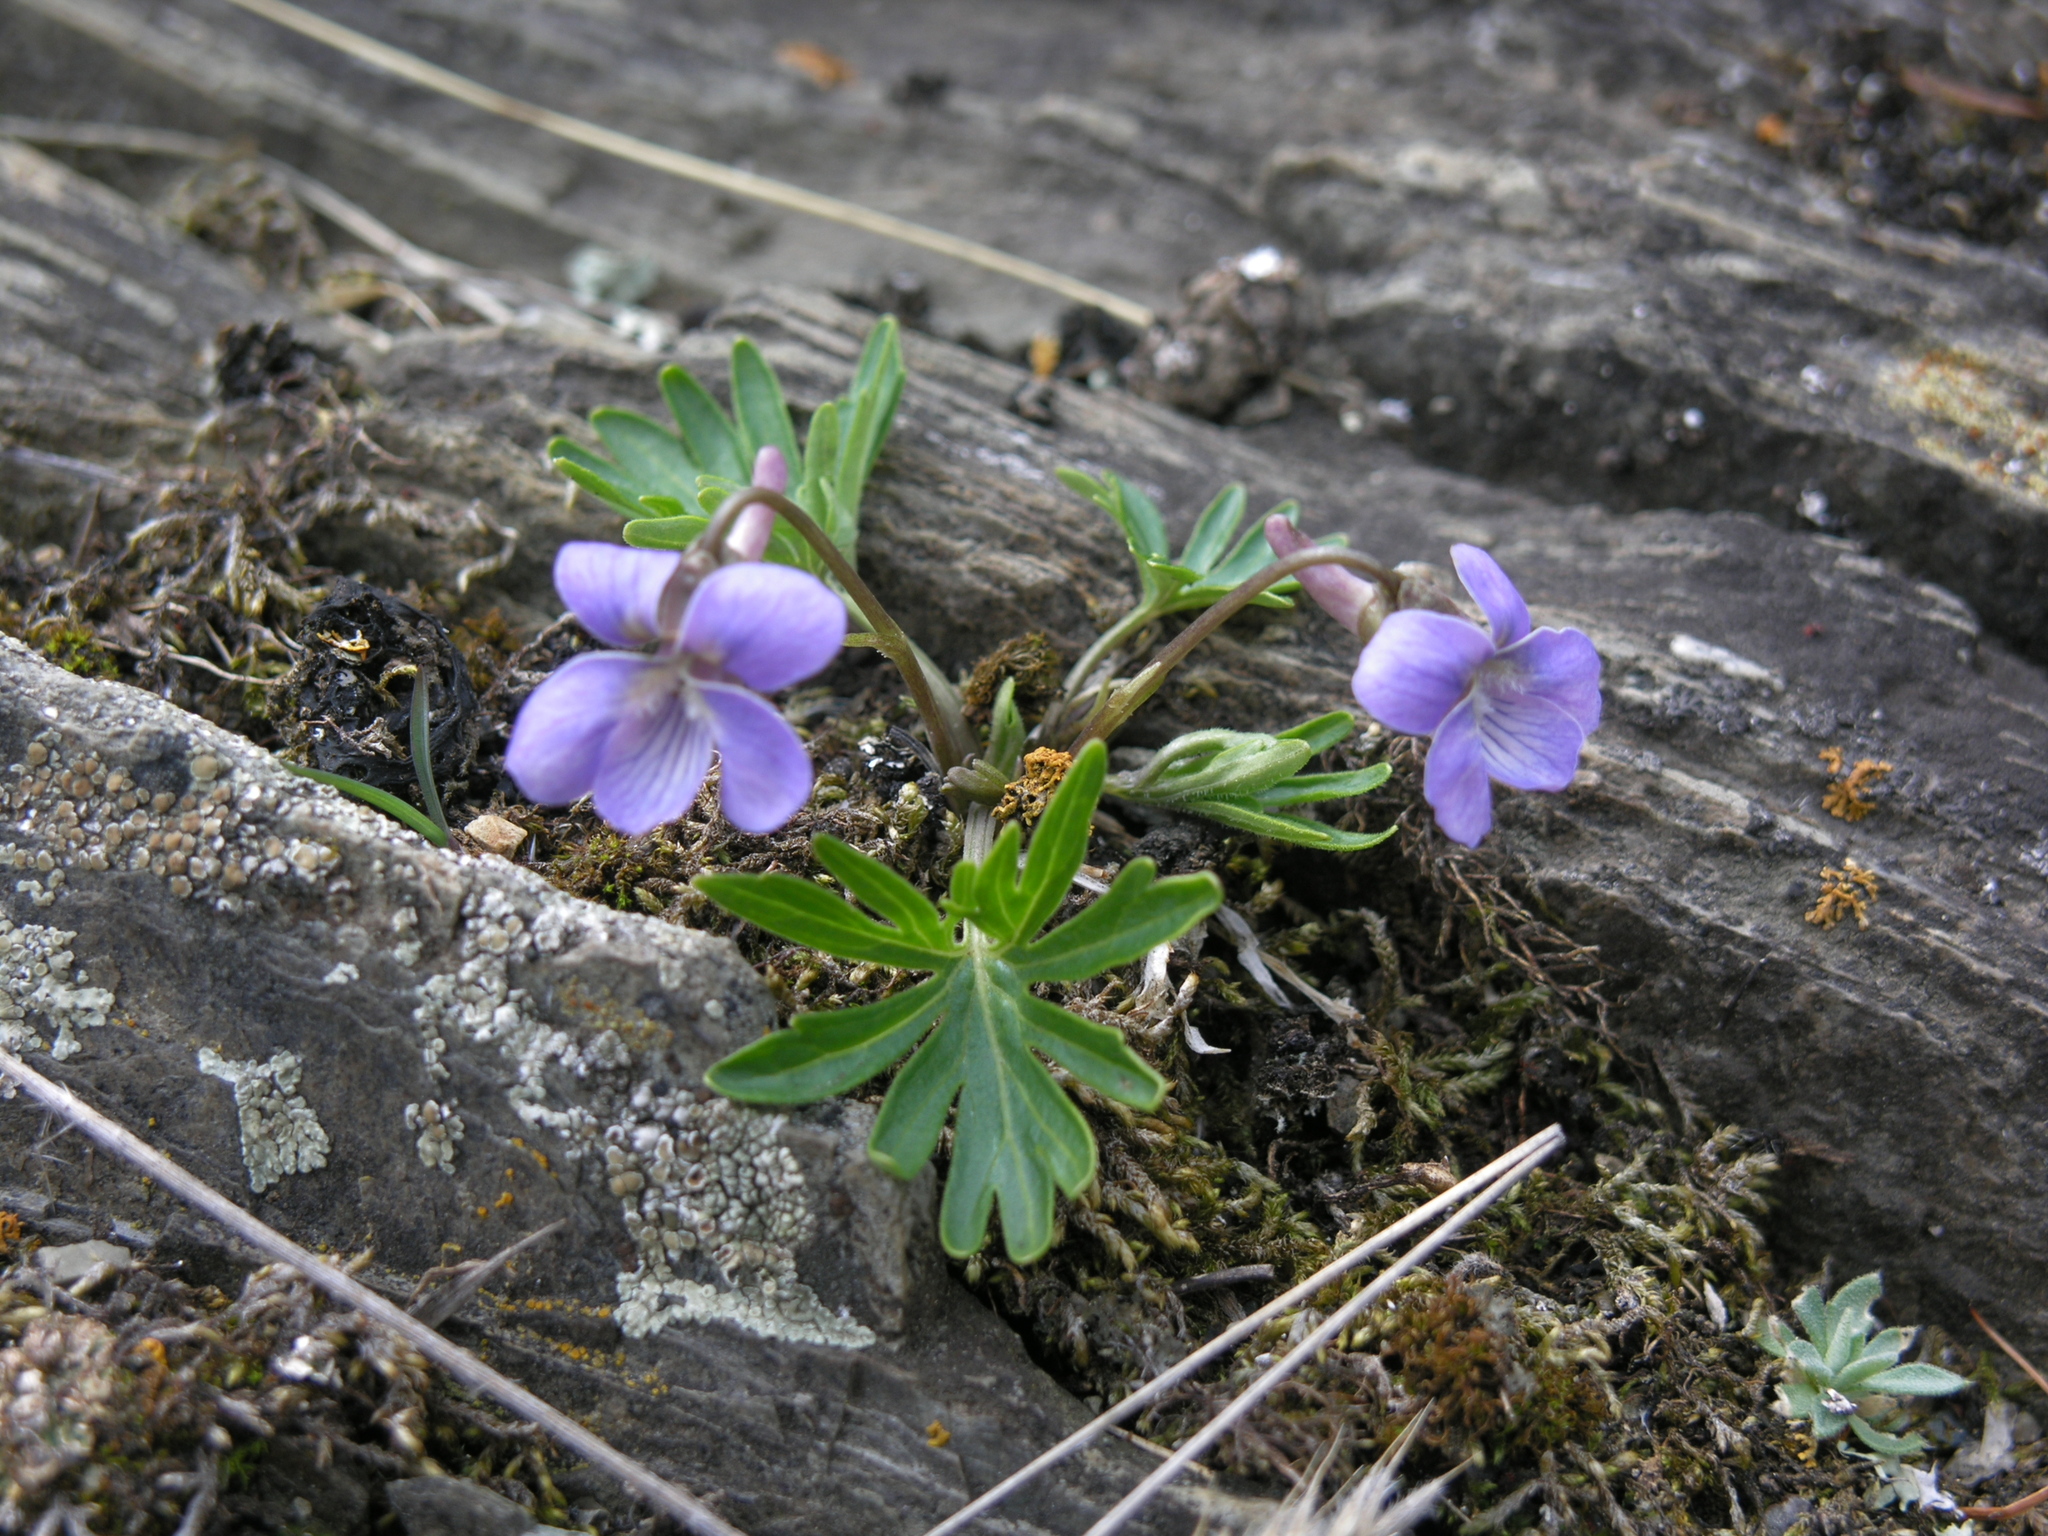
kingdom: Plantae
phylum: Tracheophyta
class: Magnoliopsida
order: Malpighiales
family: Violaceae
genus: Viola
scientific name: Viola multifida
